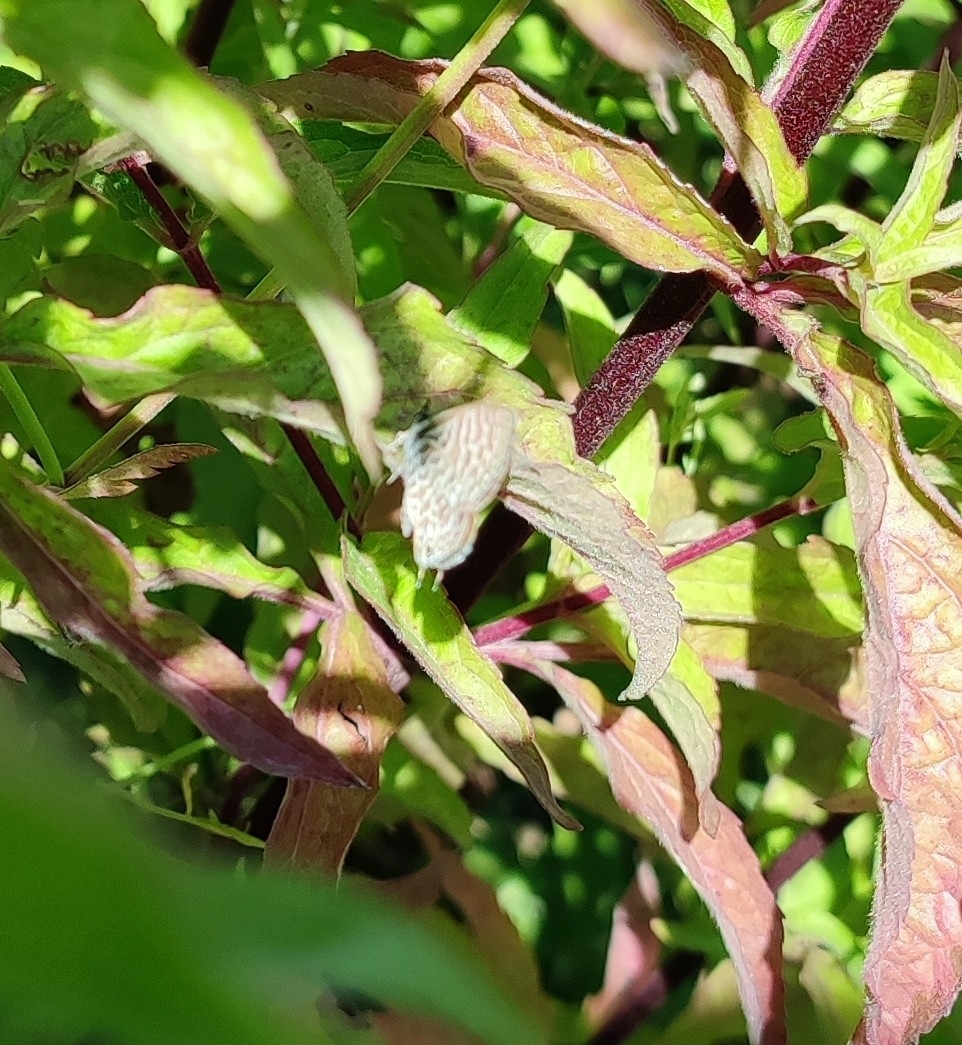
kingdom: Animalia
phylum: Arthropoda
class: Insecta
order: Lepidoptera
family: Lycaenidae
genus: Leptotes
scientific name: Leptotes pirithous
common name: Lang's short-tailed blue
